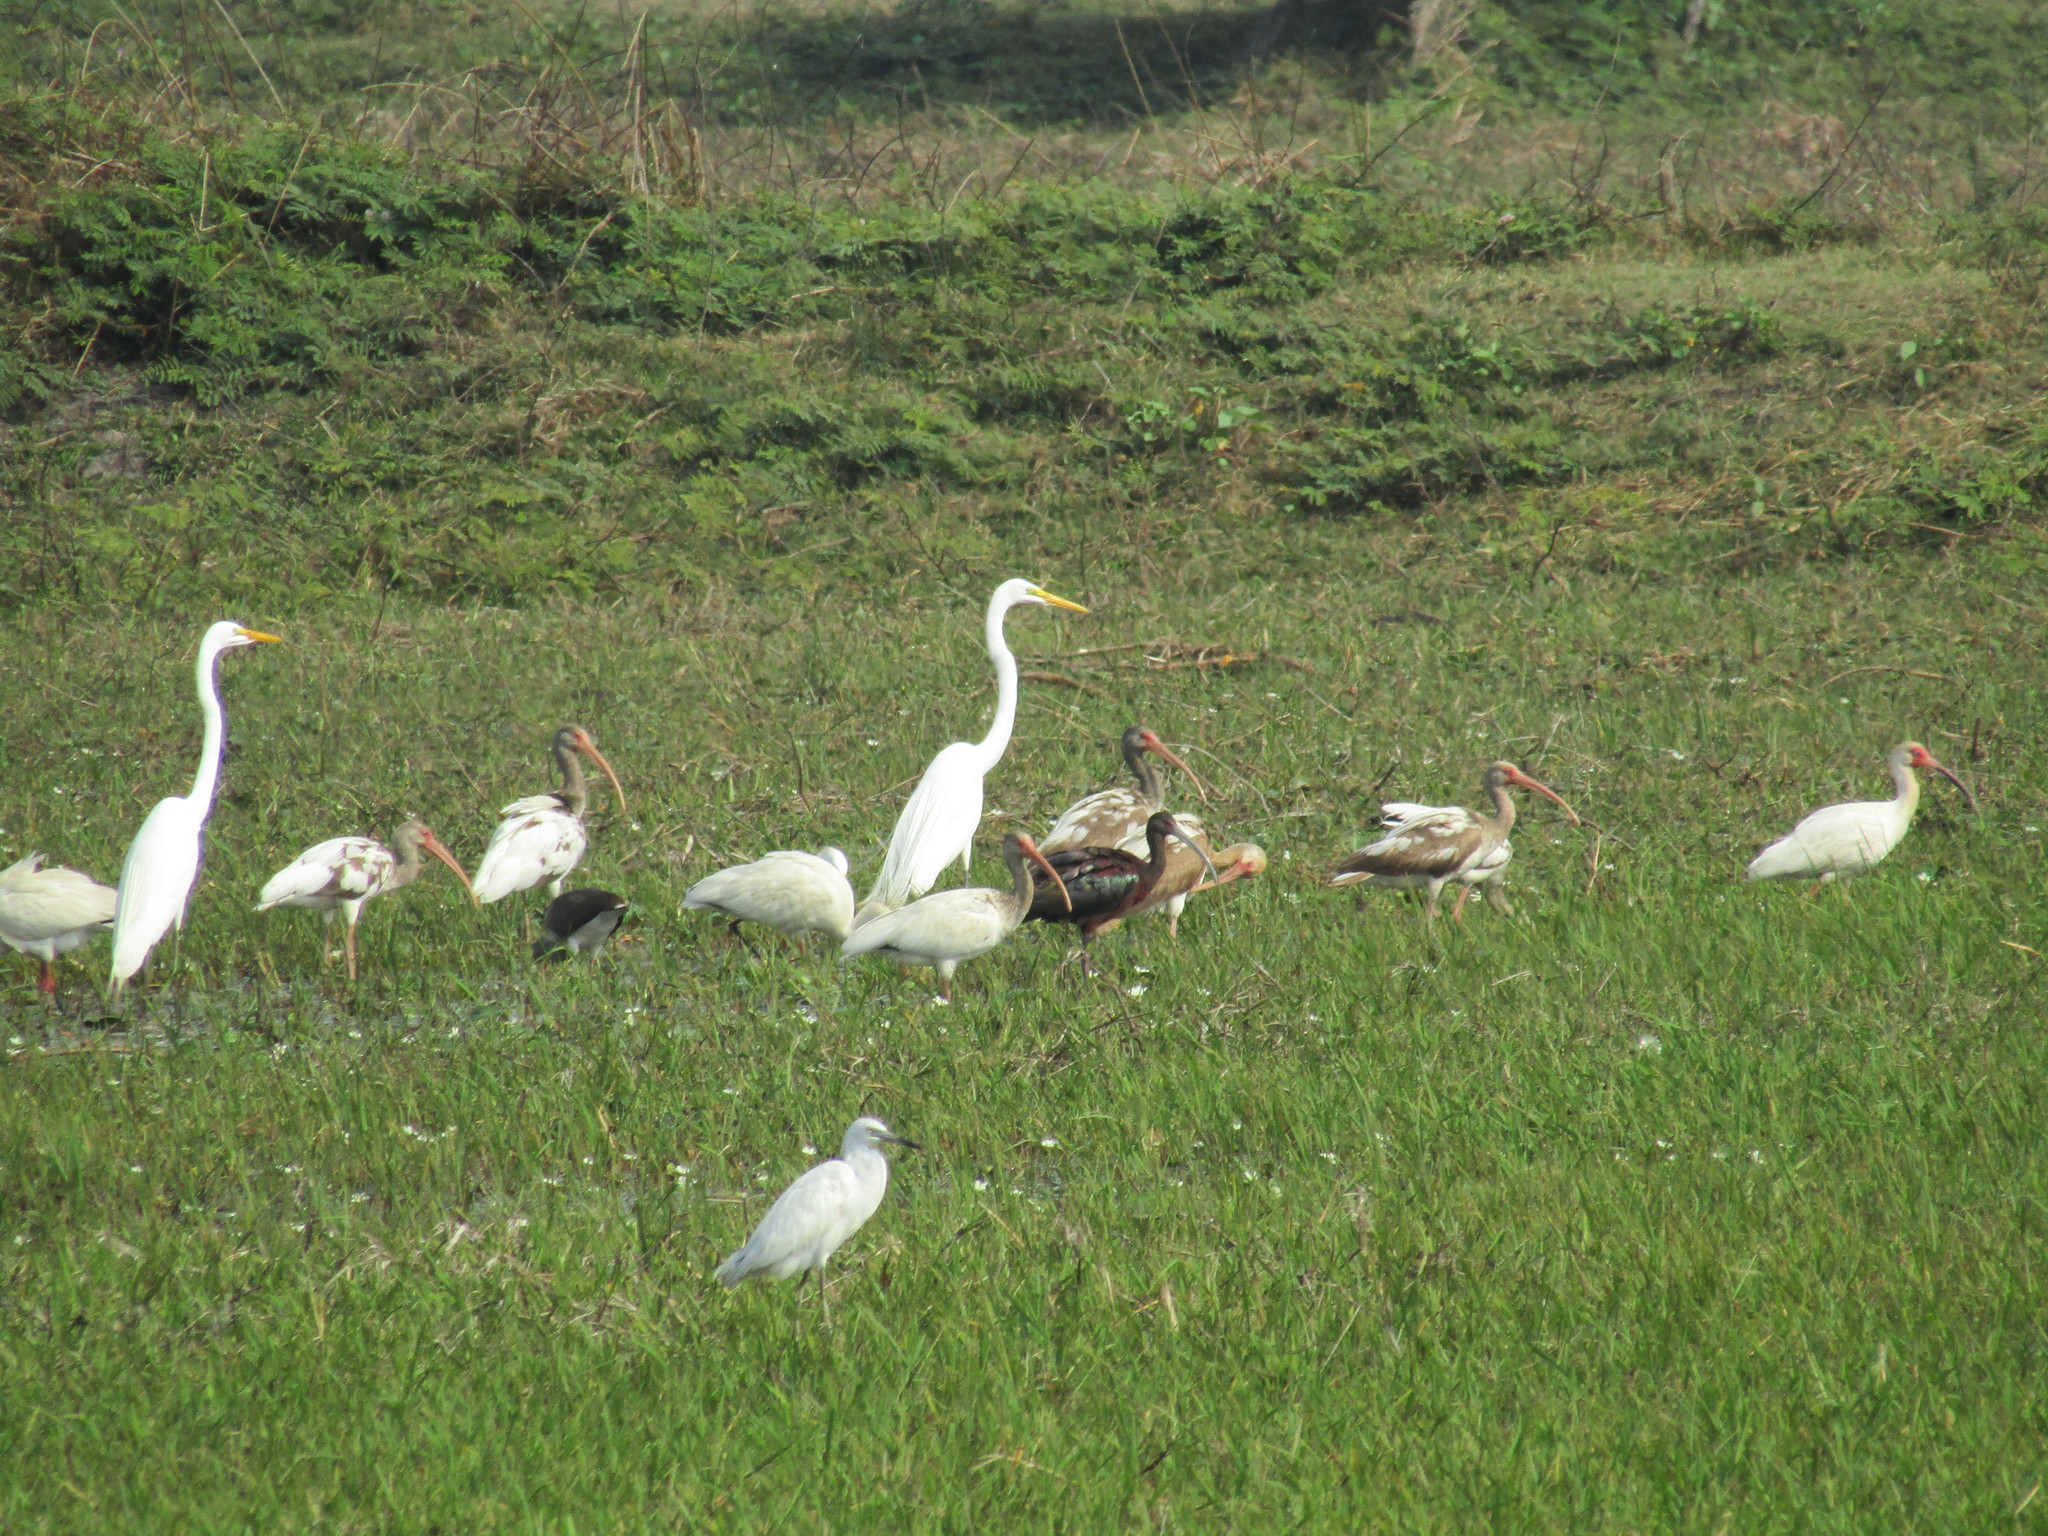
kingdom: Animalia
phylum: Chordata
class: Aves
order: Pelecaniformes
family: Ardeidae
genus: Ardea
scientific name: Ardea alba
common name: Great egret
